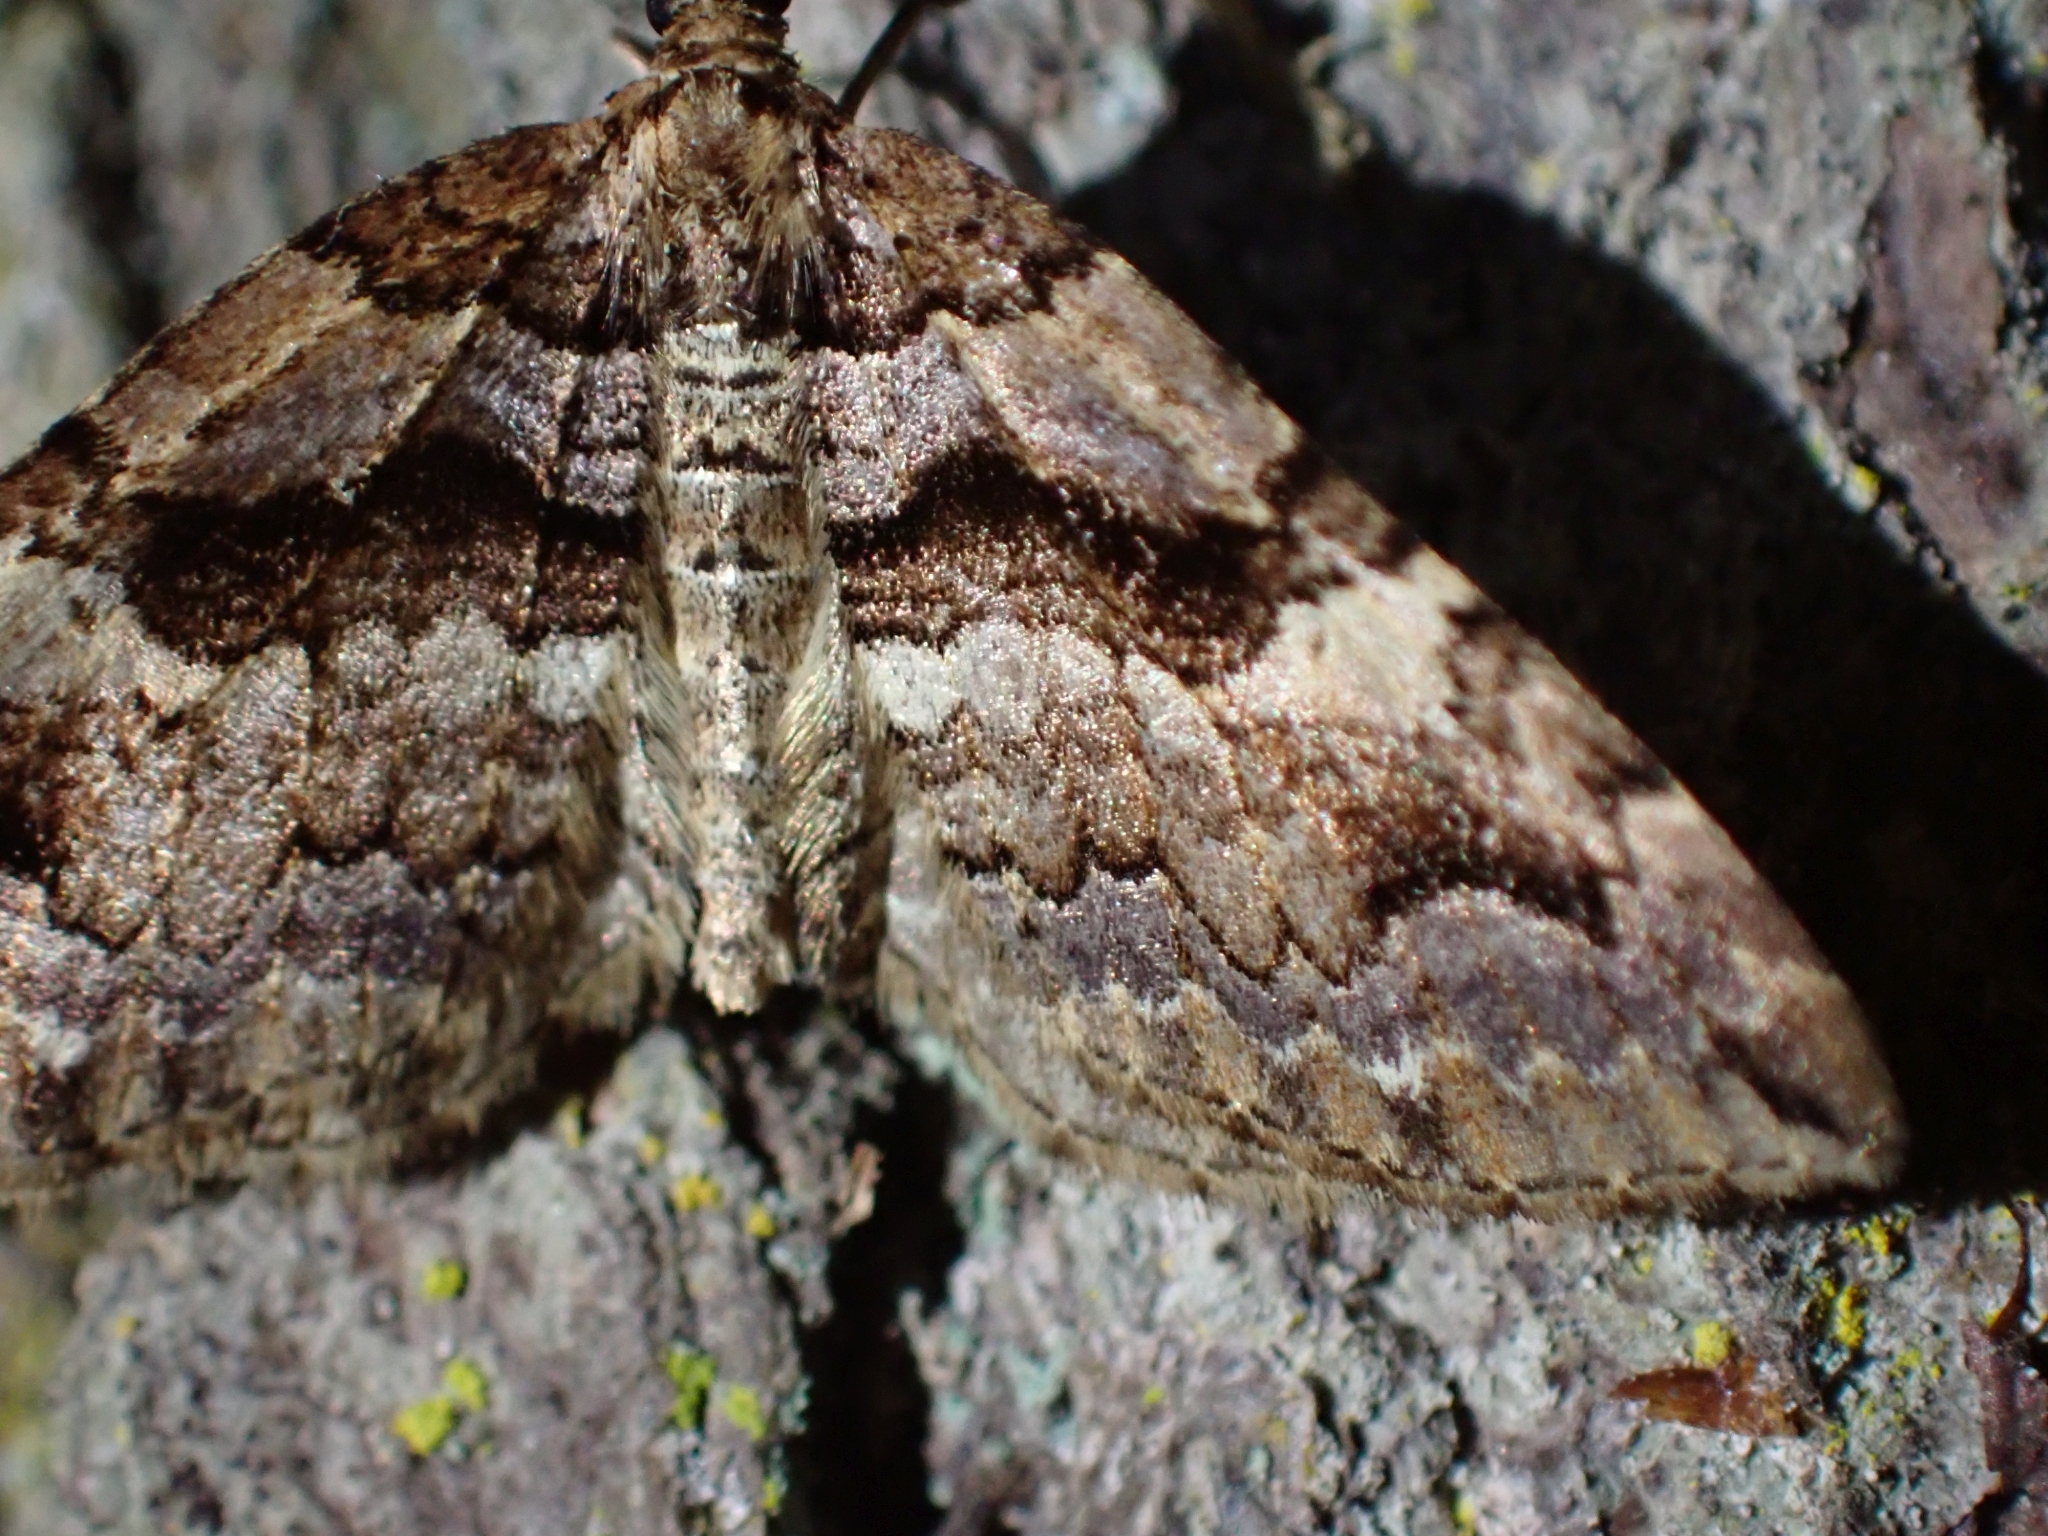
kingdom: Animalia
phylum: Arthropoda
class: Insecta
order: Lepidoptera
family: Geometridae
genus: Anticlea
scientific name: Anticlea vasiliata
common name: Variable carpet
